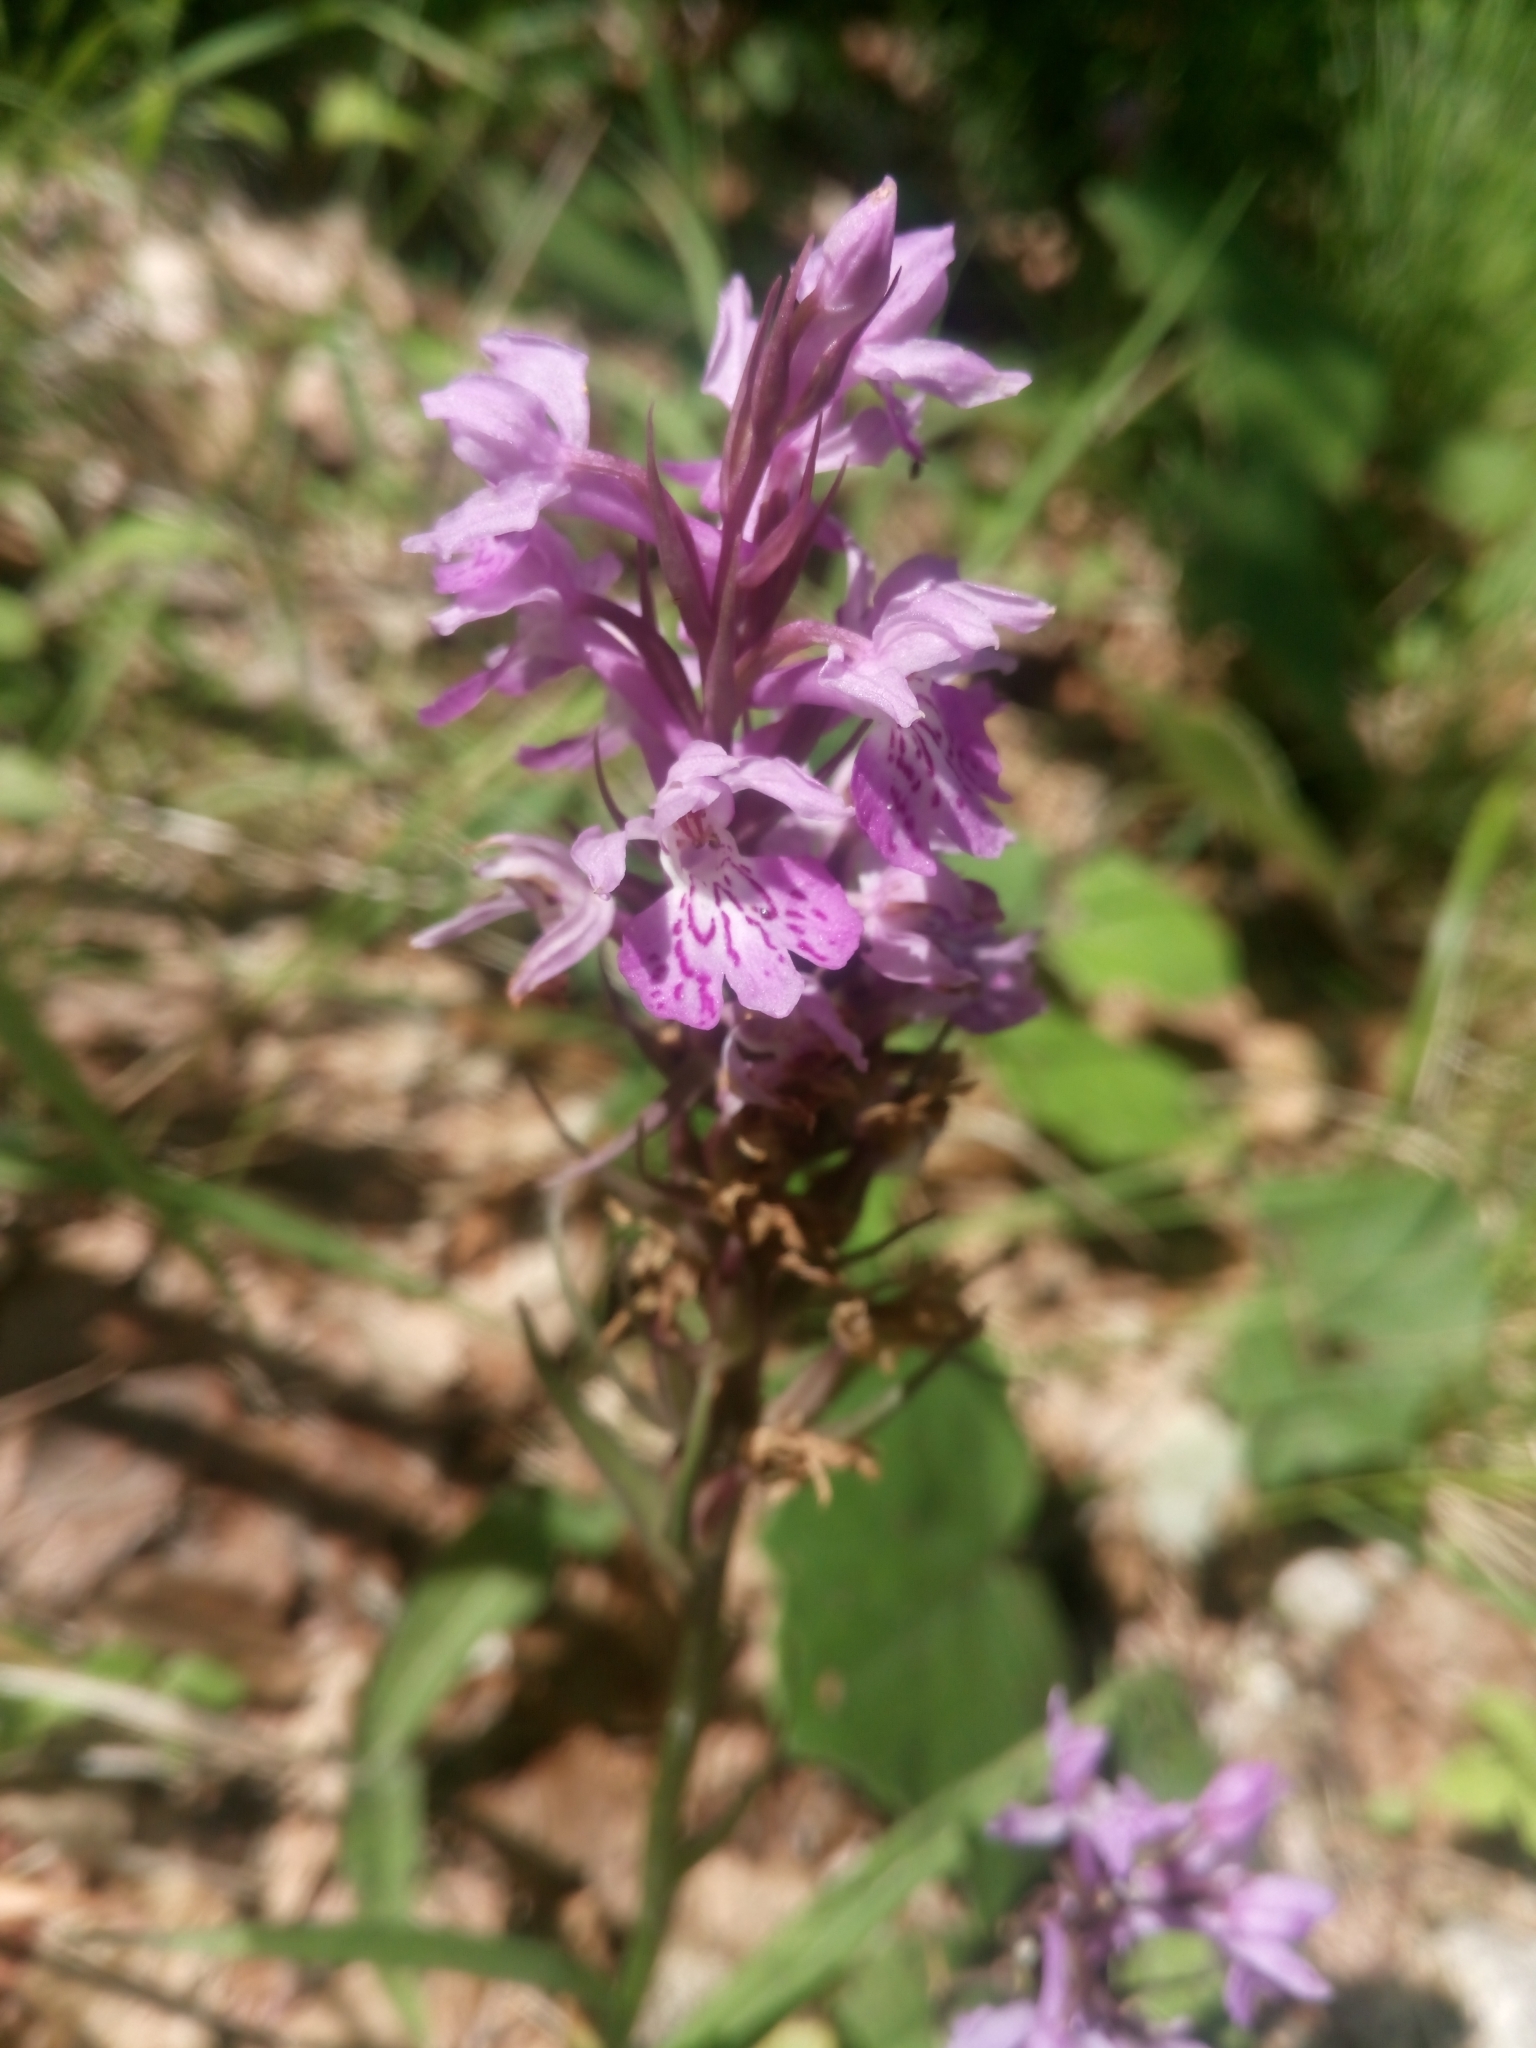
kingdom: Plantae
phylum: Tracheophyta
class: Liliopsida
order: Asparagales
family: Orchidaceae
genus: Dactylorhiza
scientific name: Dactylorhiza maculata
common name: Heath spotted-orchid
